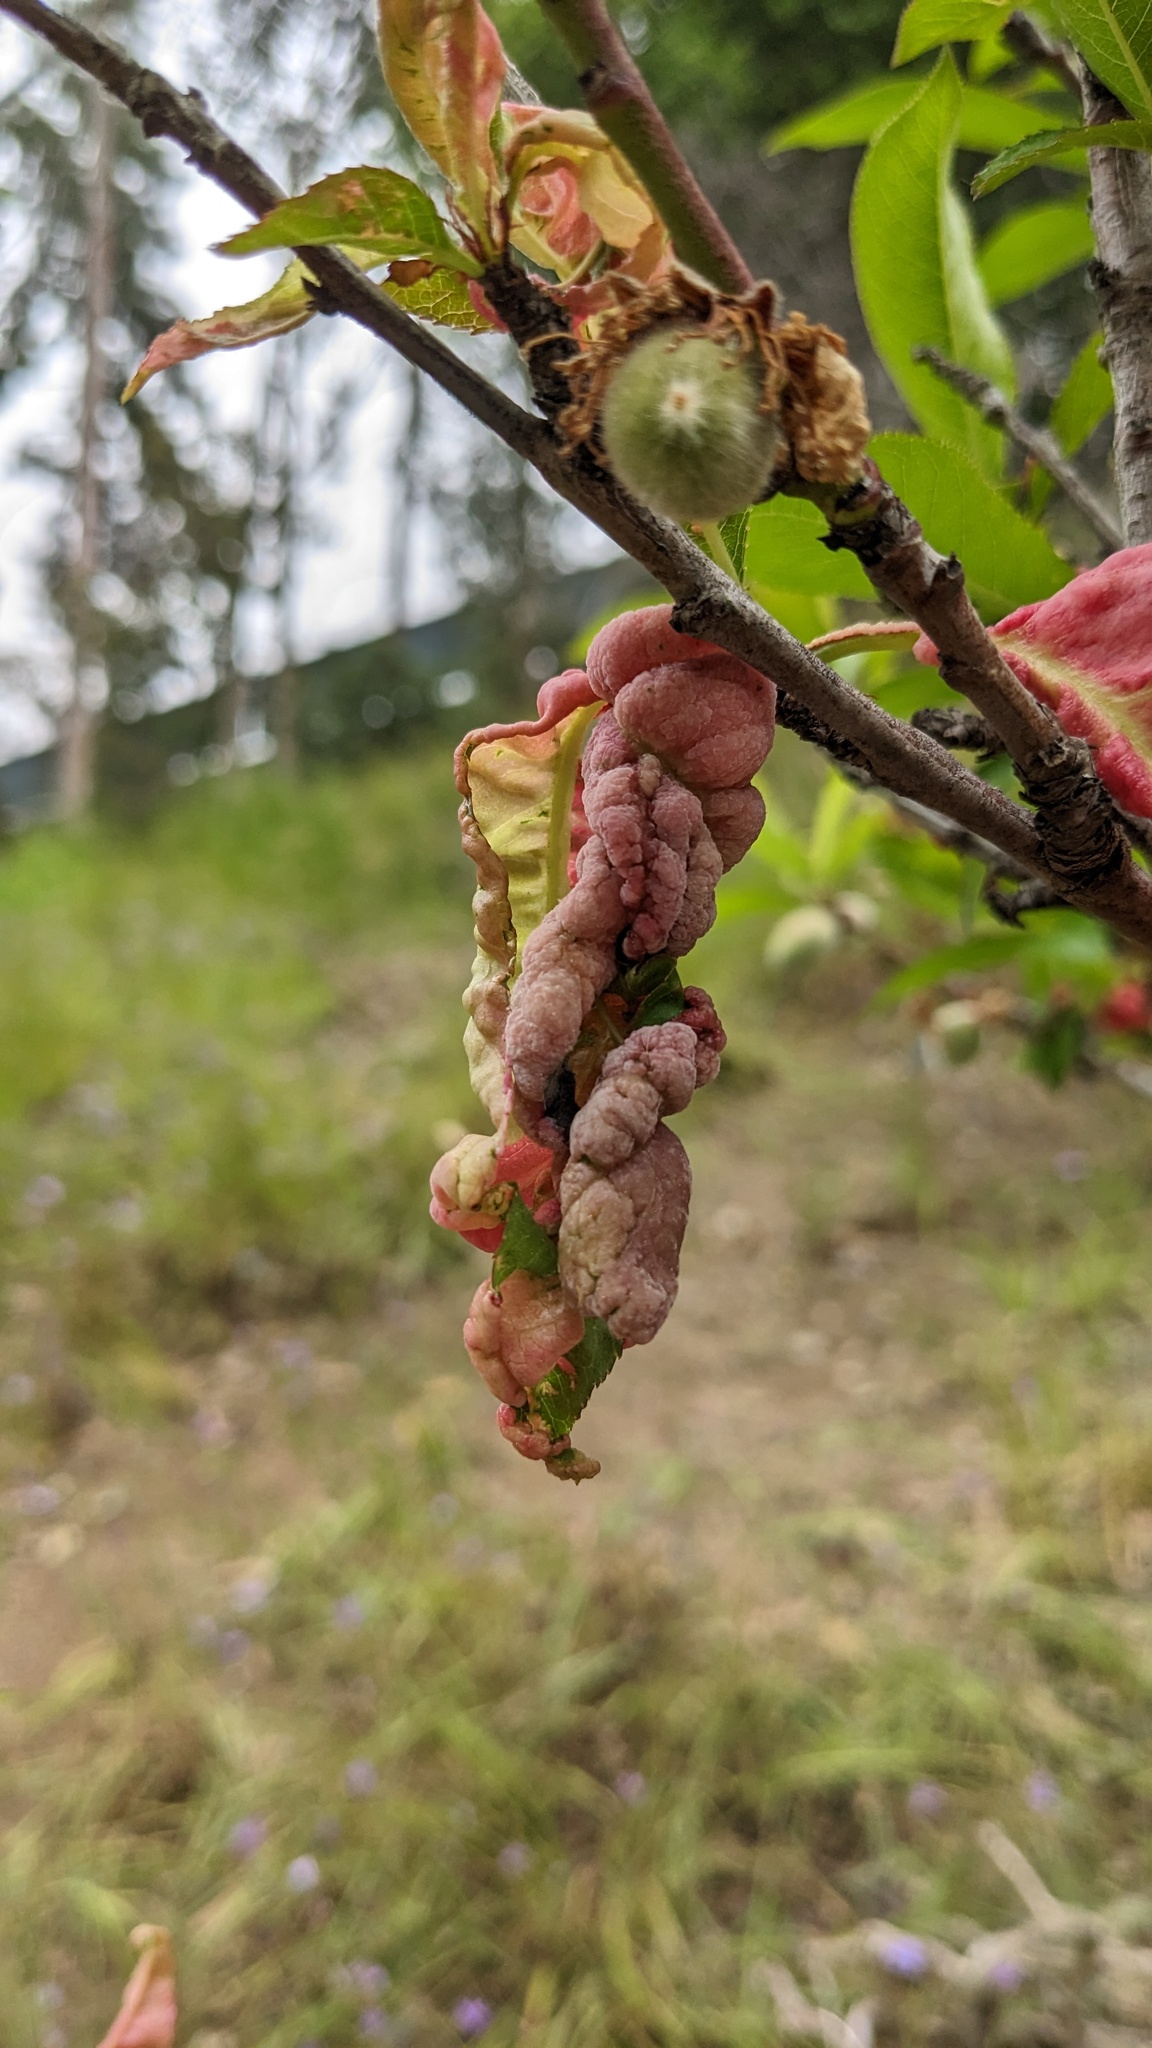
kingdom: Fungi
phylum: Ascomycota
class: Taphrinomycetes
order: Taphrinales
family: Taphrinaceae
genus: Taphrina
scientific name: Taphrina deformans
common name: Peach leaf curl
